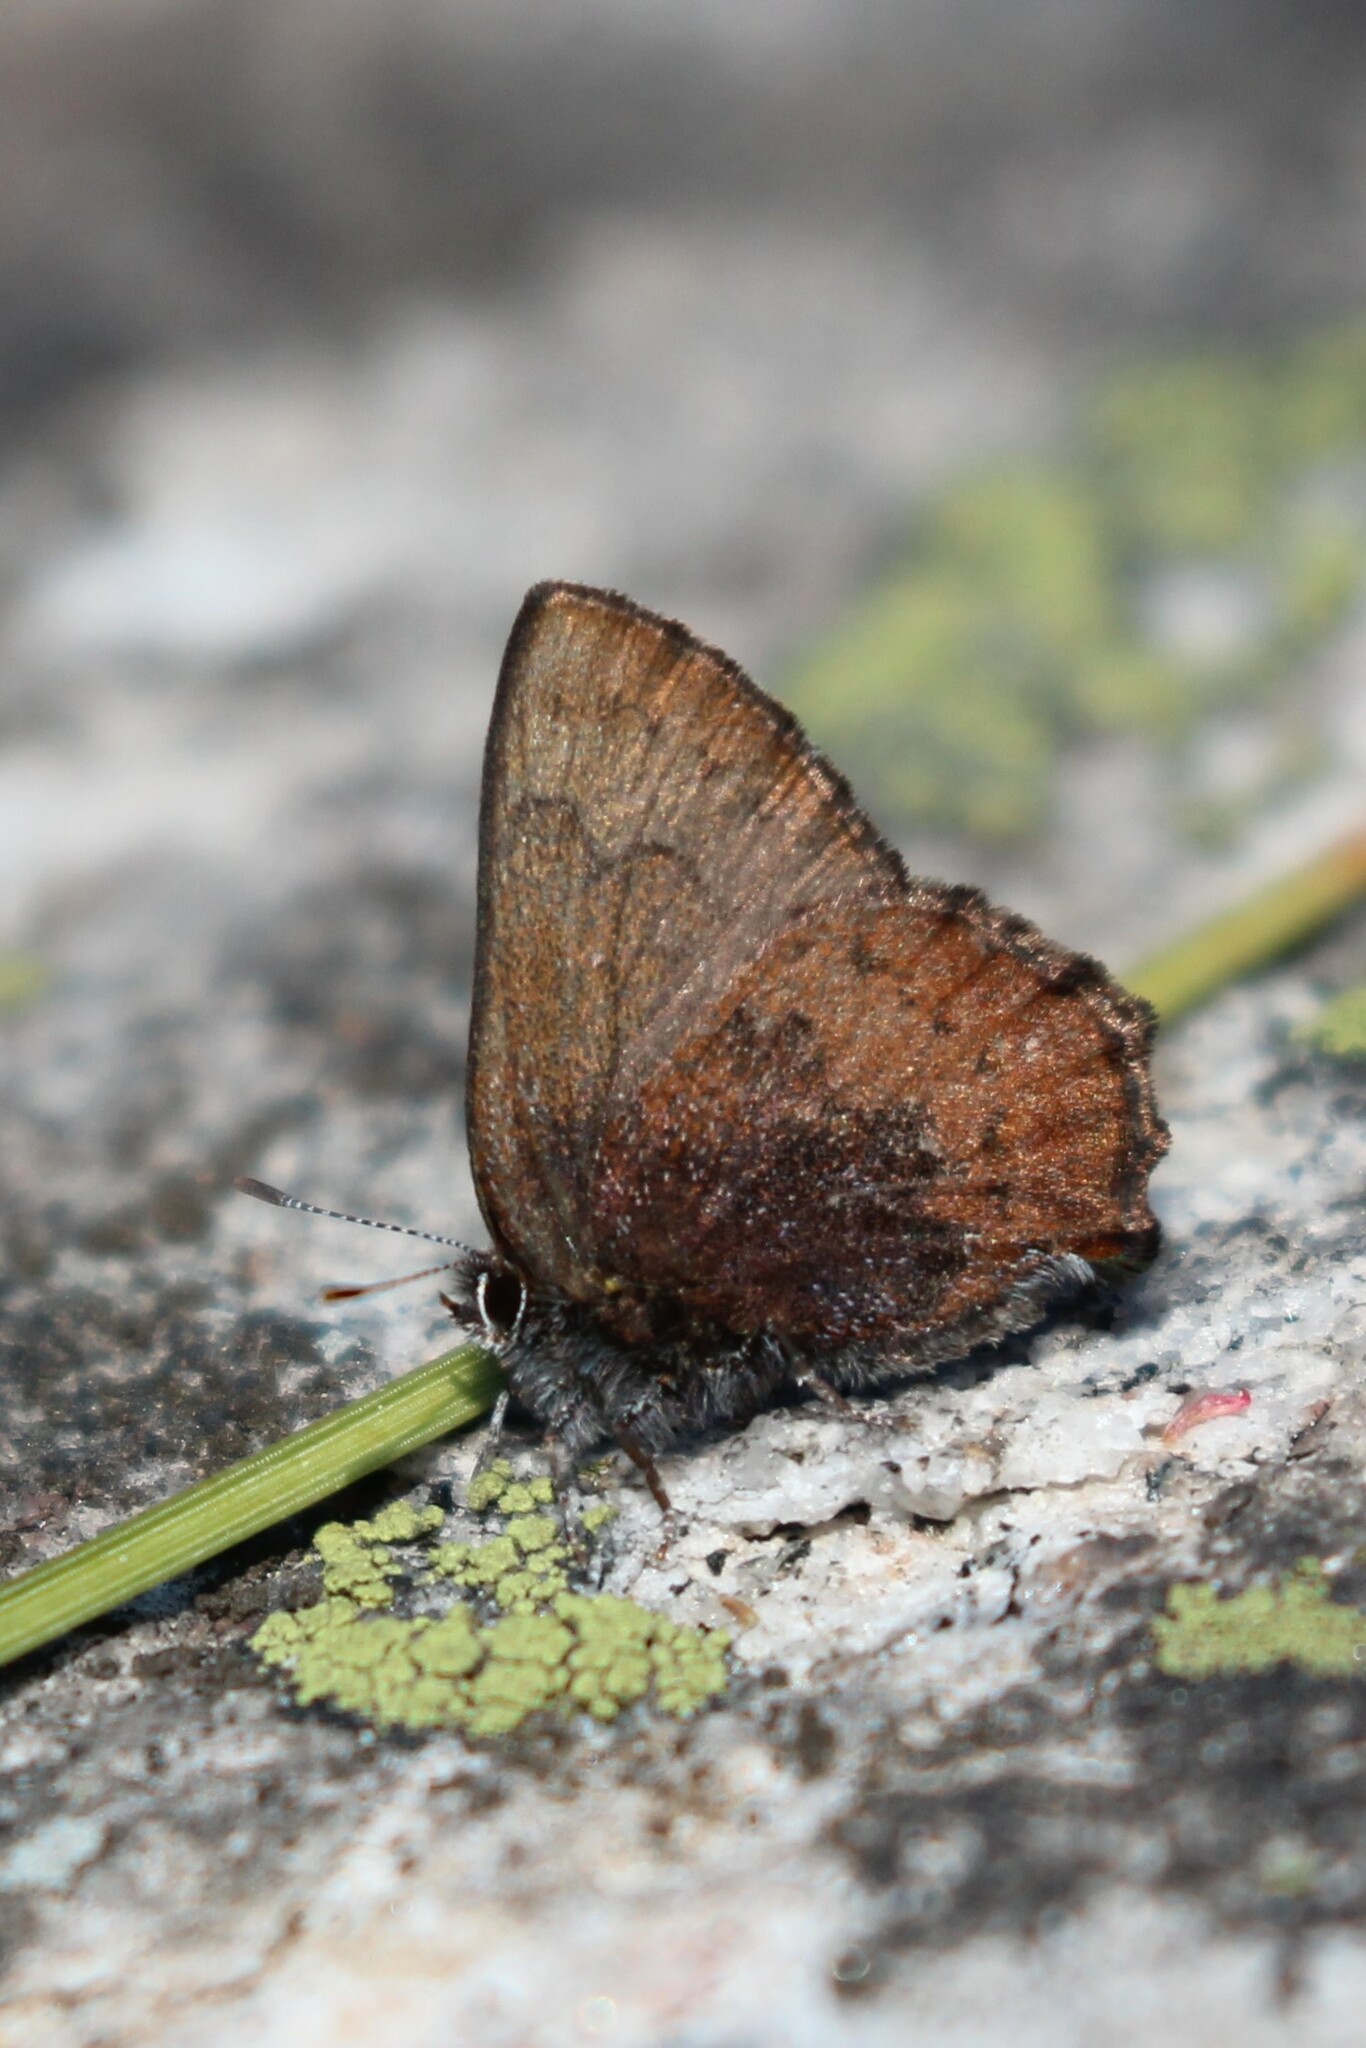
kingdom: Animalia
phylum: Arthropoda
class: Insecta
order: Lepidoptera
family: Lycaenidae
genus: Incisalia
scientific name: Incisalia irioides
